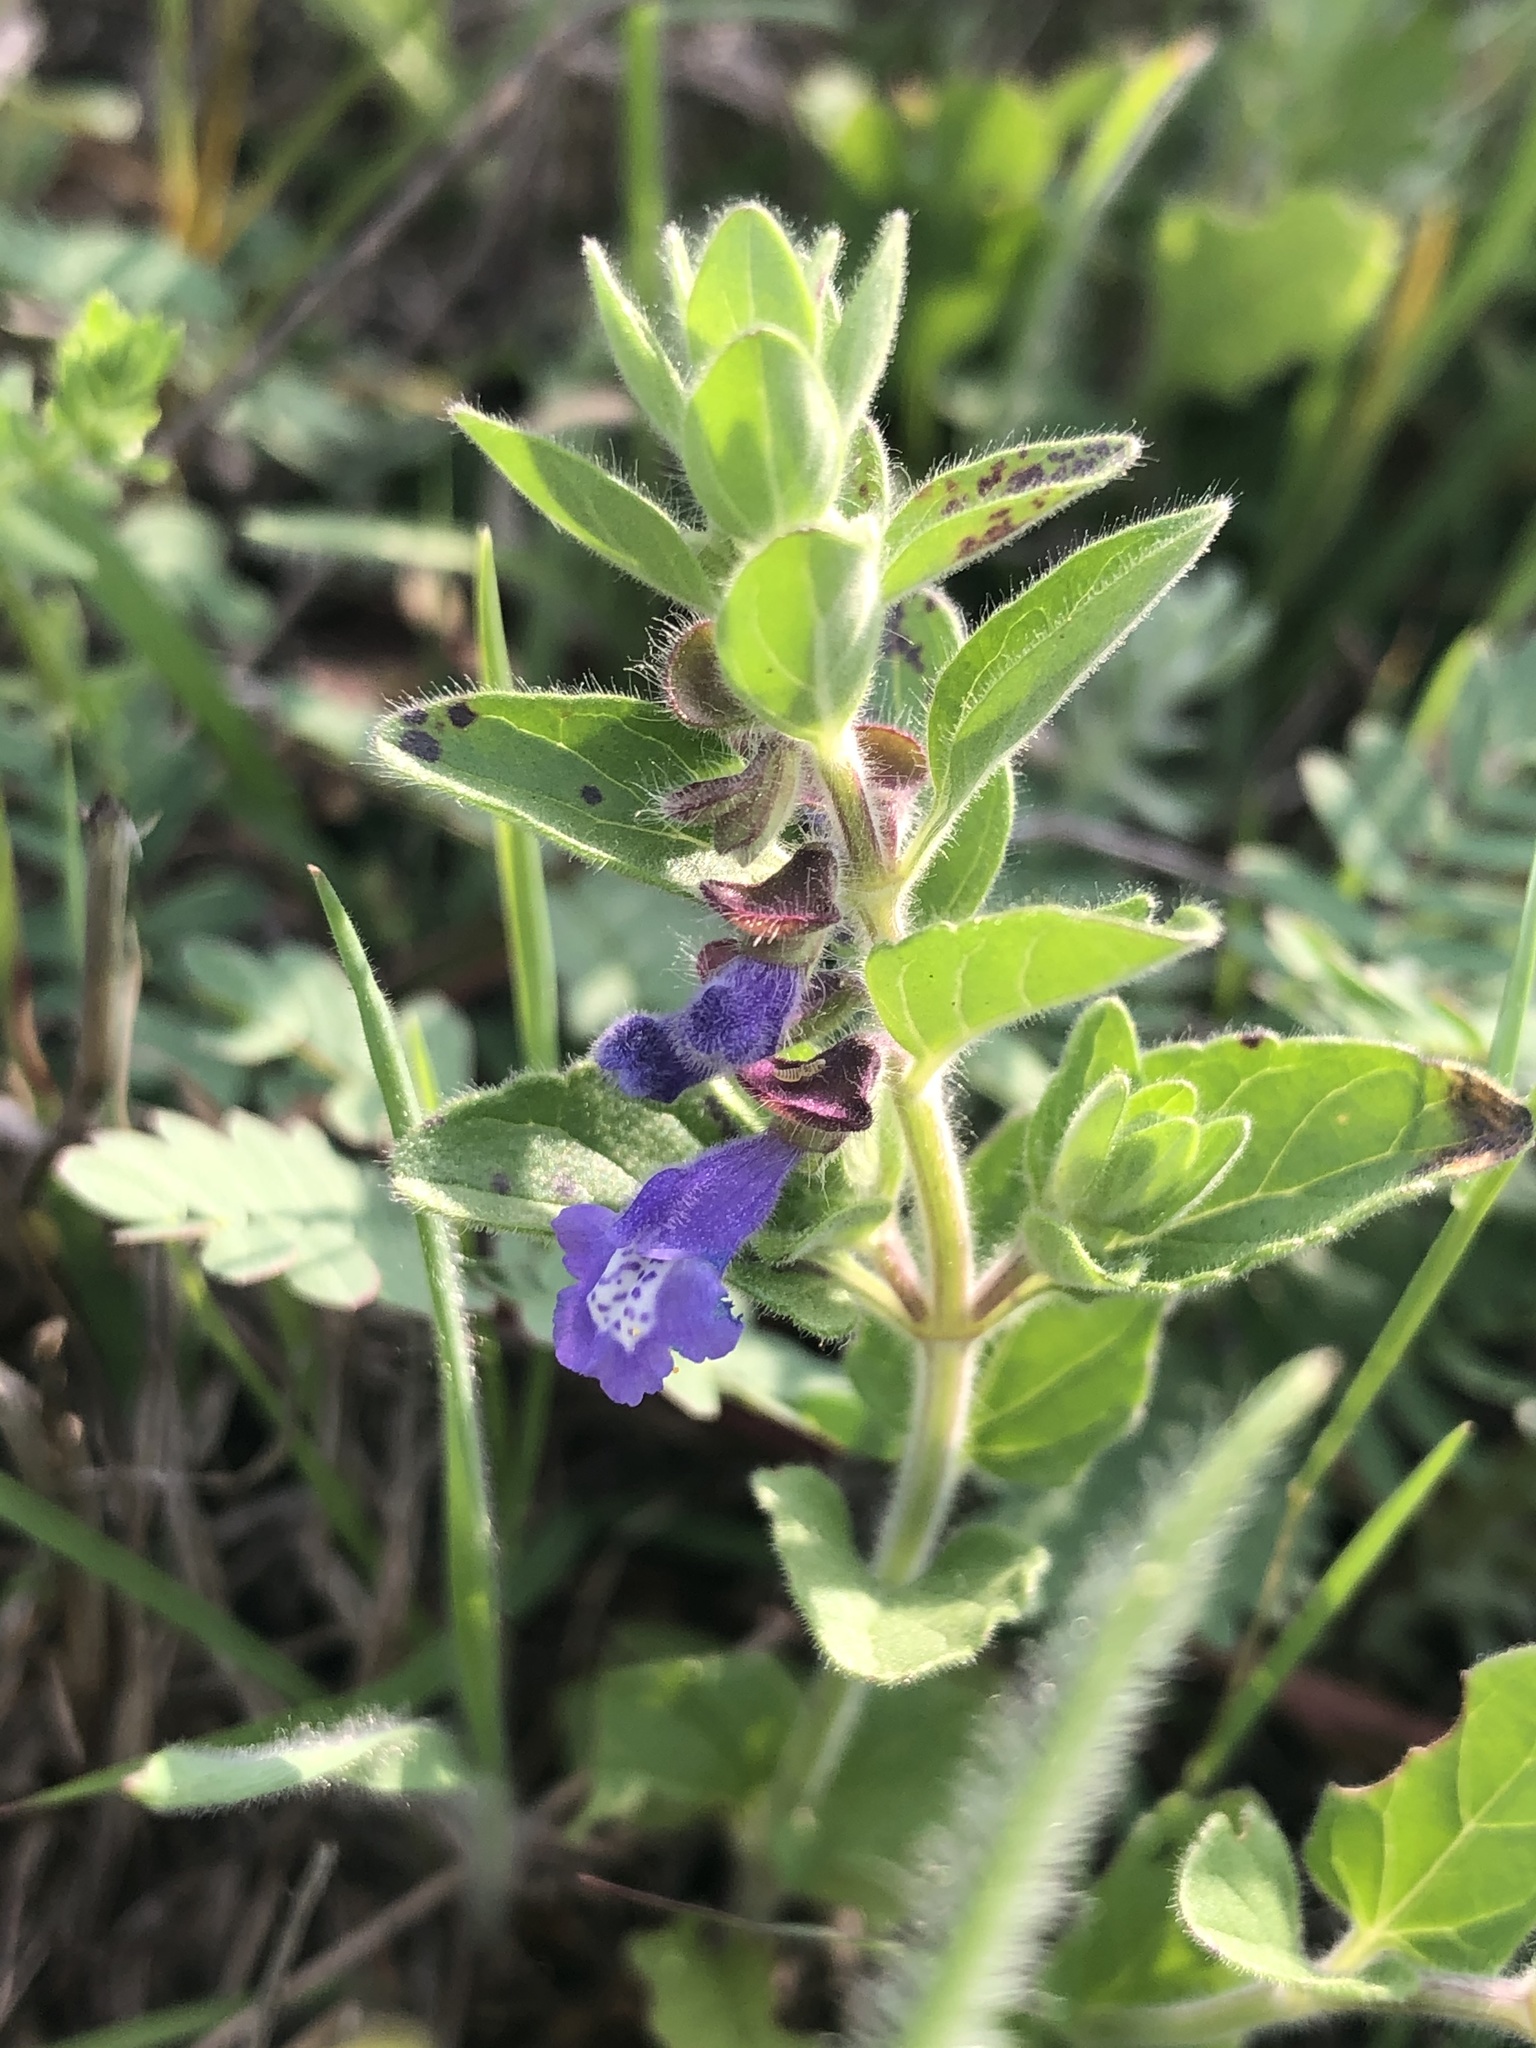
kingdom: Plantae
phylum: Tracheophyta
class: Magnoliopsida
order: Lamiales
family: Lamiaceae
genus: Scutellaria
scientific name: Scutellaria drummondii
